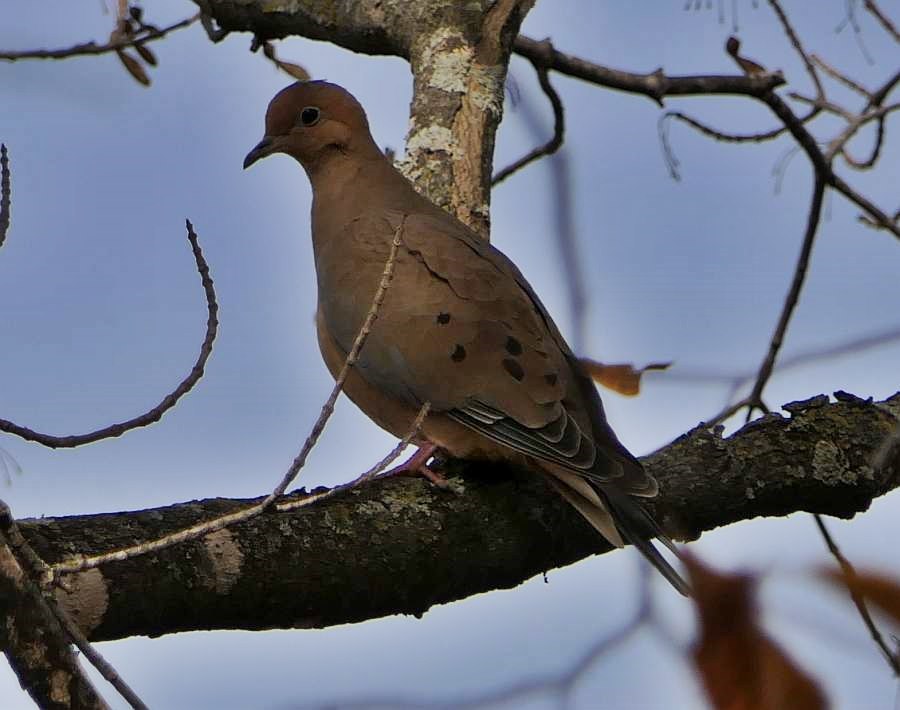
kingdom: Animalia
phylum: Chordata
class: Aves
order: Columbiformes
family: Columbidae
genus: Zenaida
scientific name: Zenaida macroura
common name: Mourning dove
